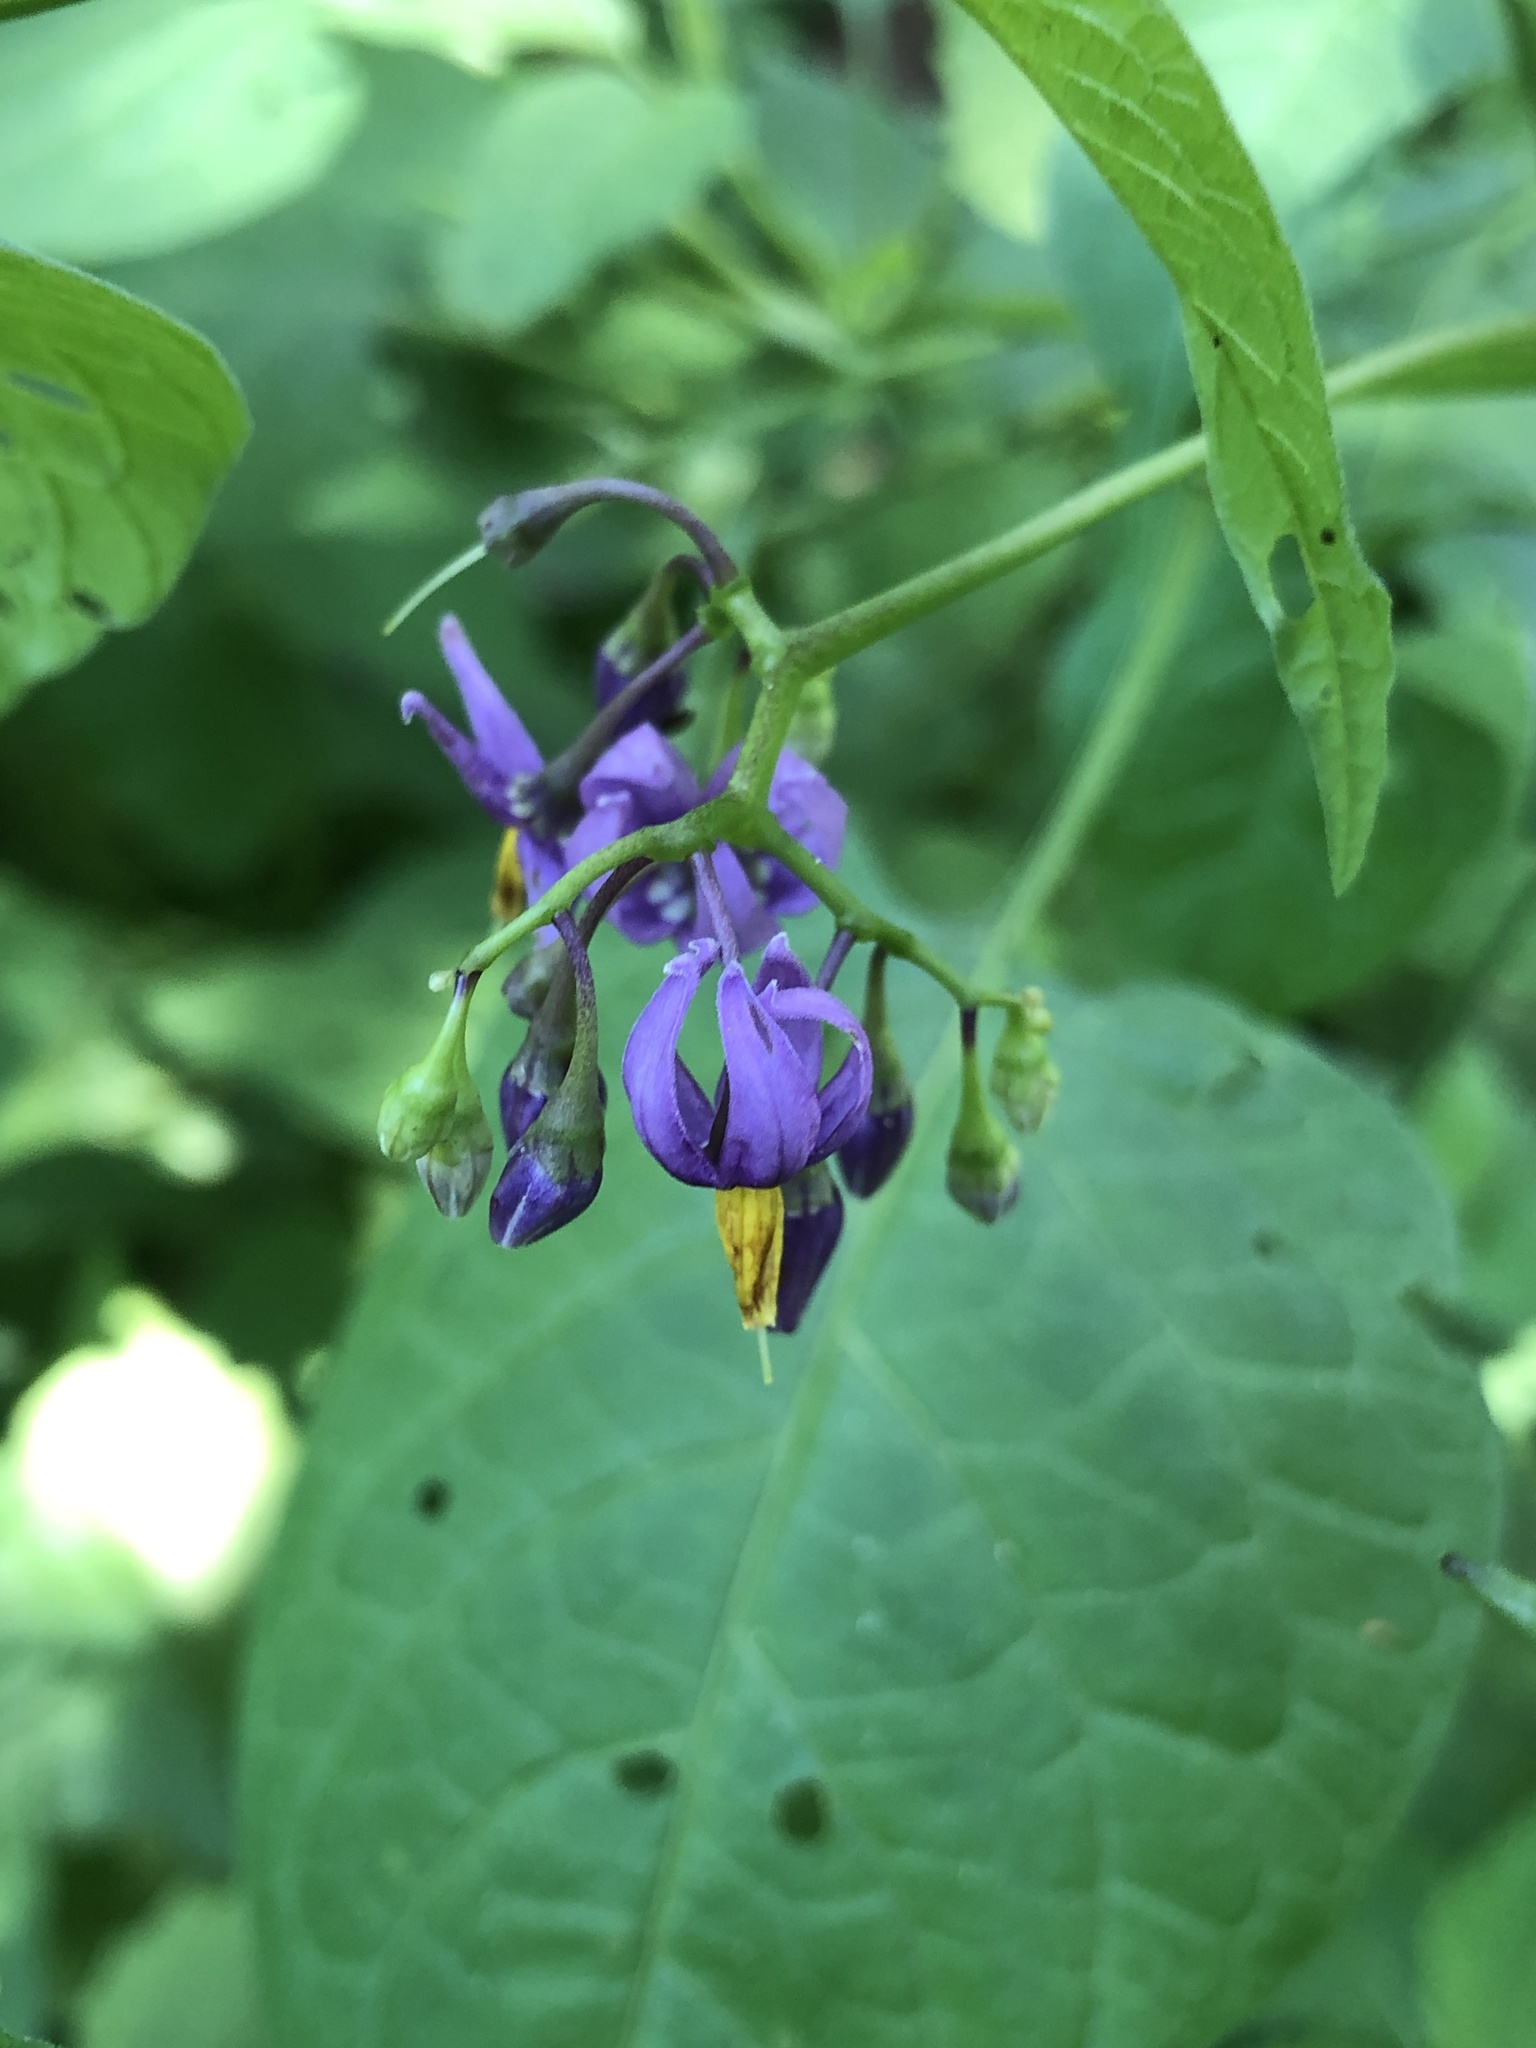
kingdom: Plantae
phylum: Tracheophyta
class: Magnoliopsida
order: Solanales
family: Solanaceae
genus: Solanum
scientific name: Solanum dulcamara
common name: Climbing nightshade
